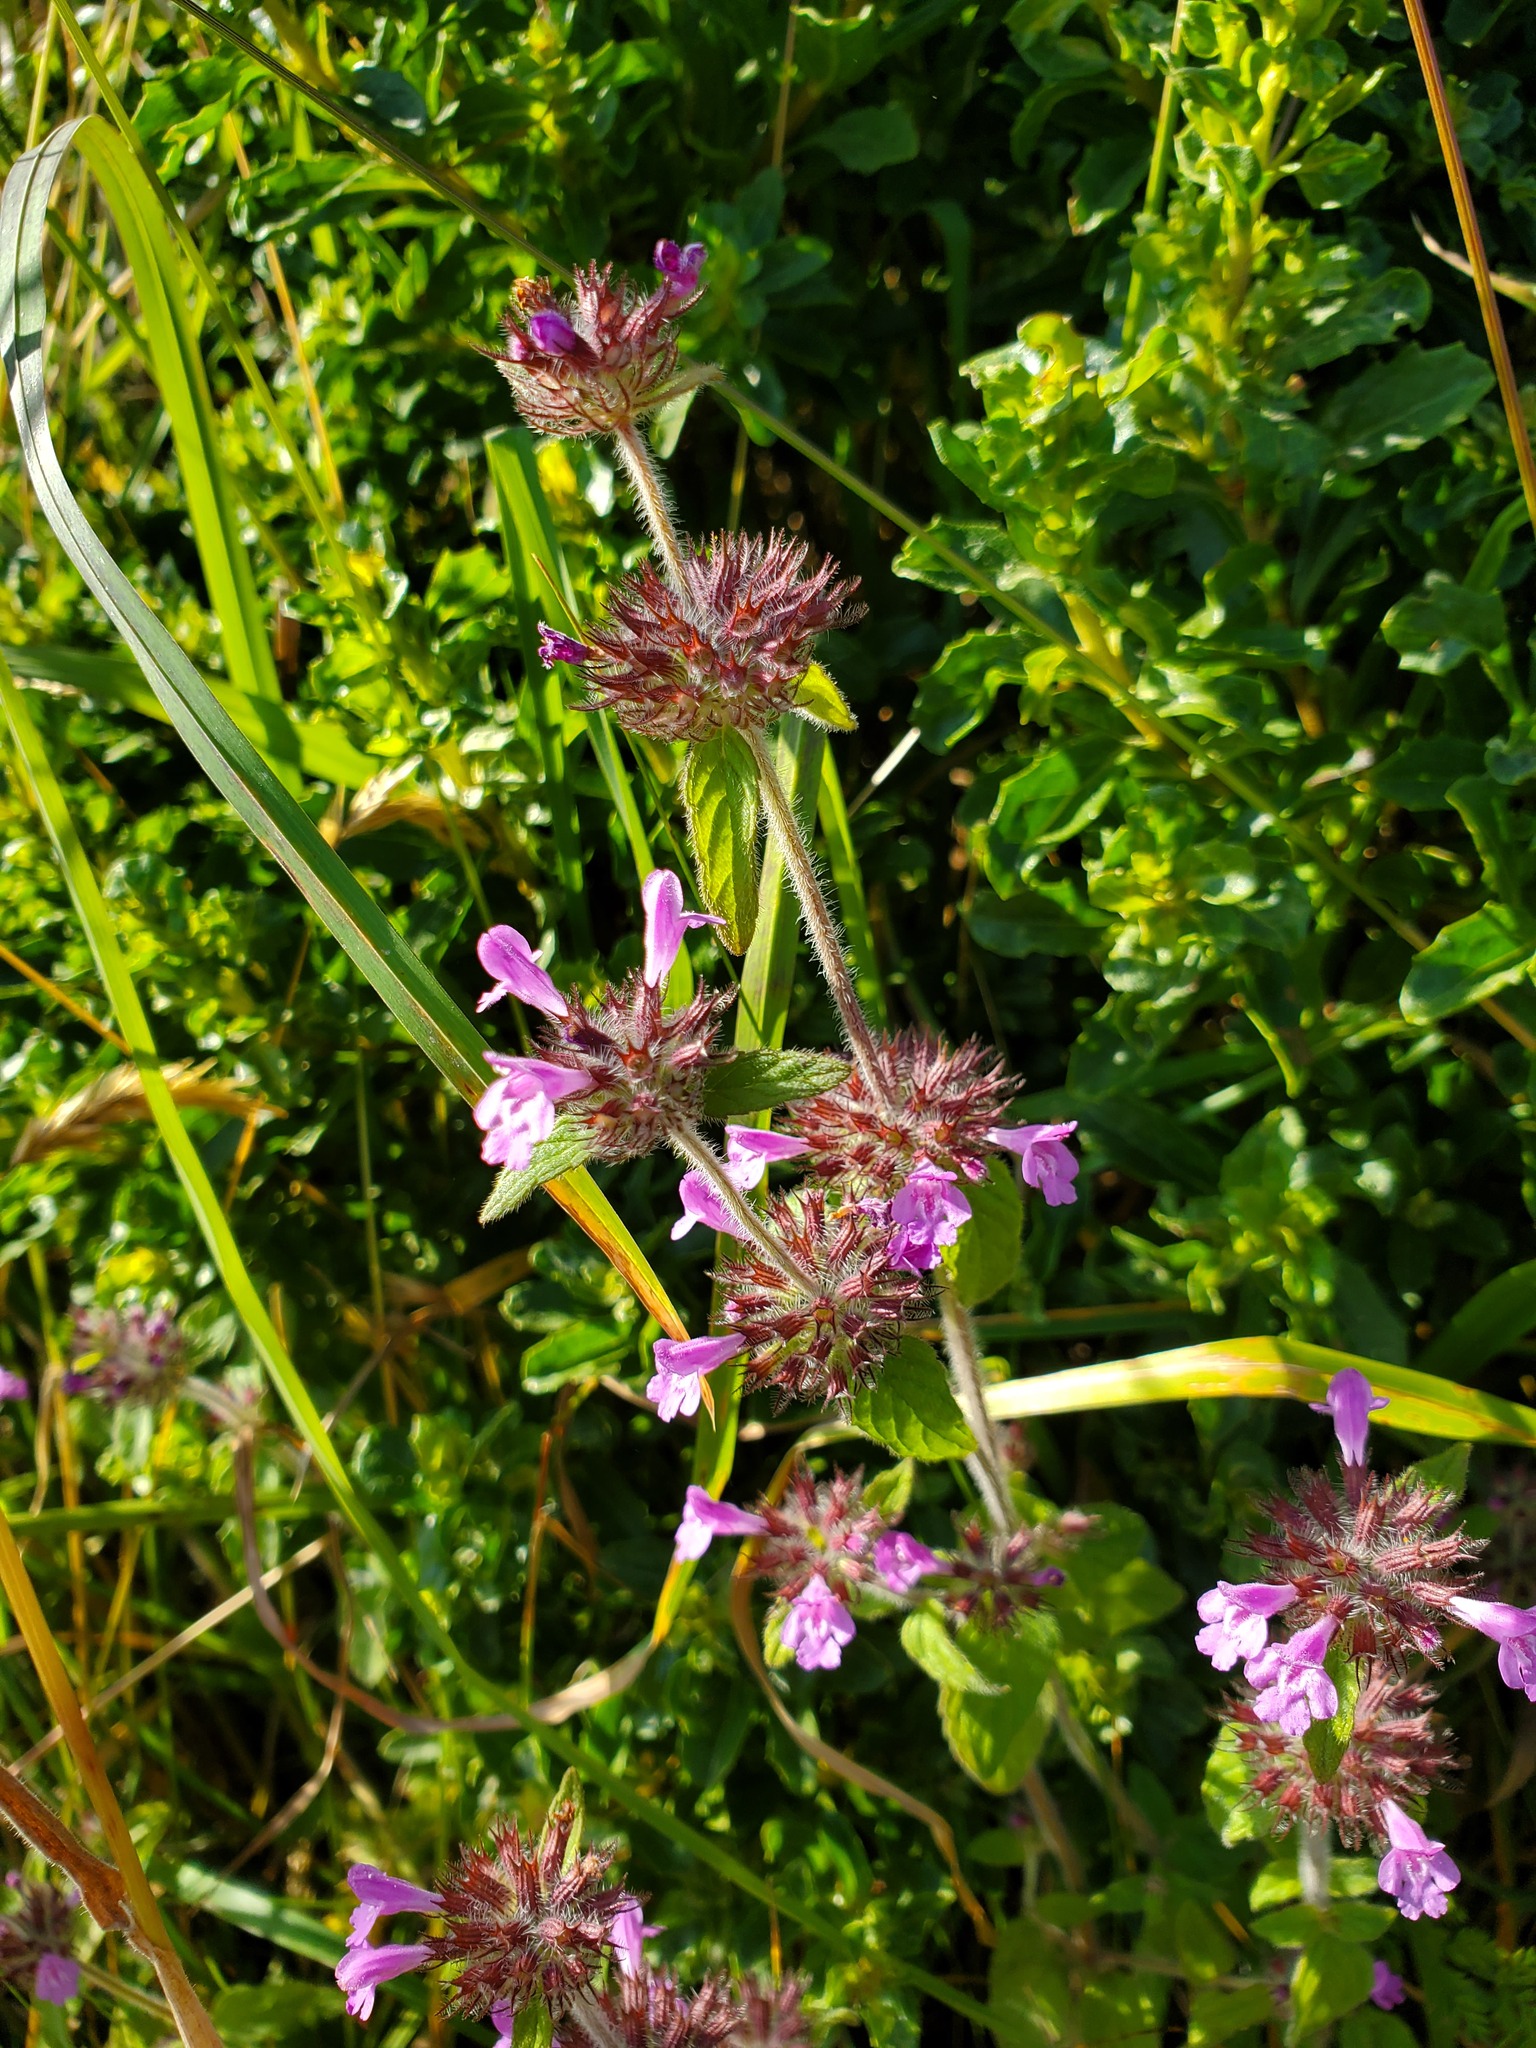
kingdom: Plantae
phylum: Tracheophyta
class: Magnoliopsida
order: Lamiales
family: Lamiaceae
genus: Clinopodium
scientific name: Clinopodium vulgare
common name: Wild basil
